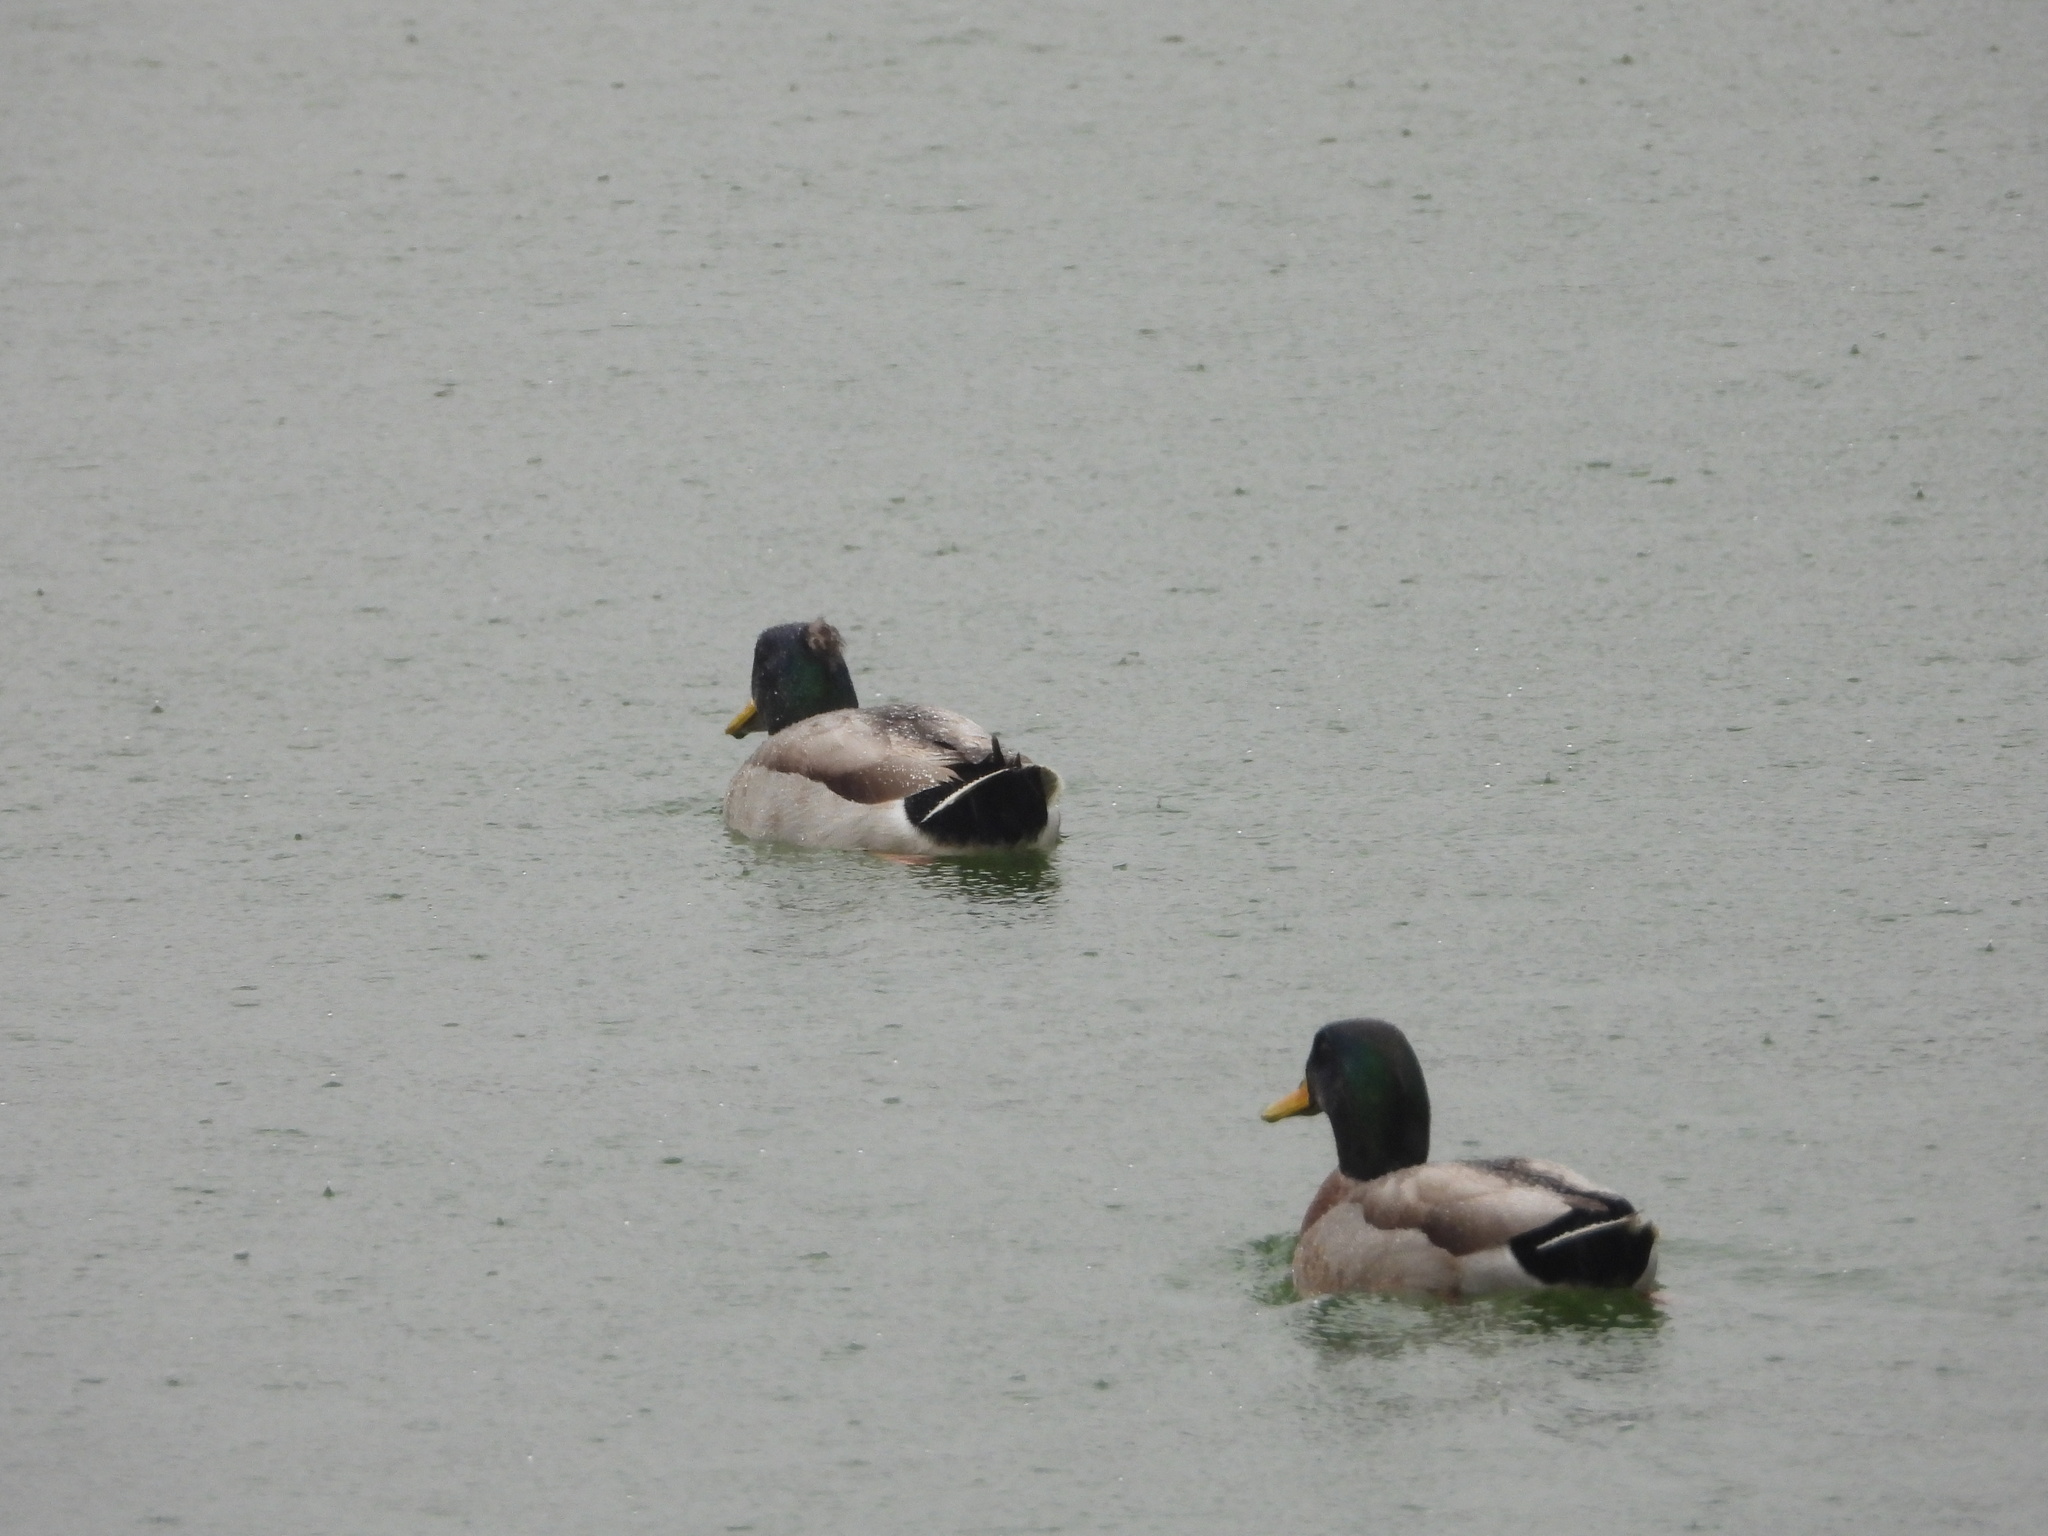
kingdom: Animalia
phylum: Chordata
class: Aves
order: Anseriformes
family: Anatidae
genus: Anas
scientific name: Anas platyrhynchos
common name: Mallard
